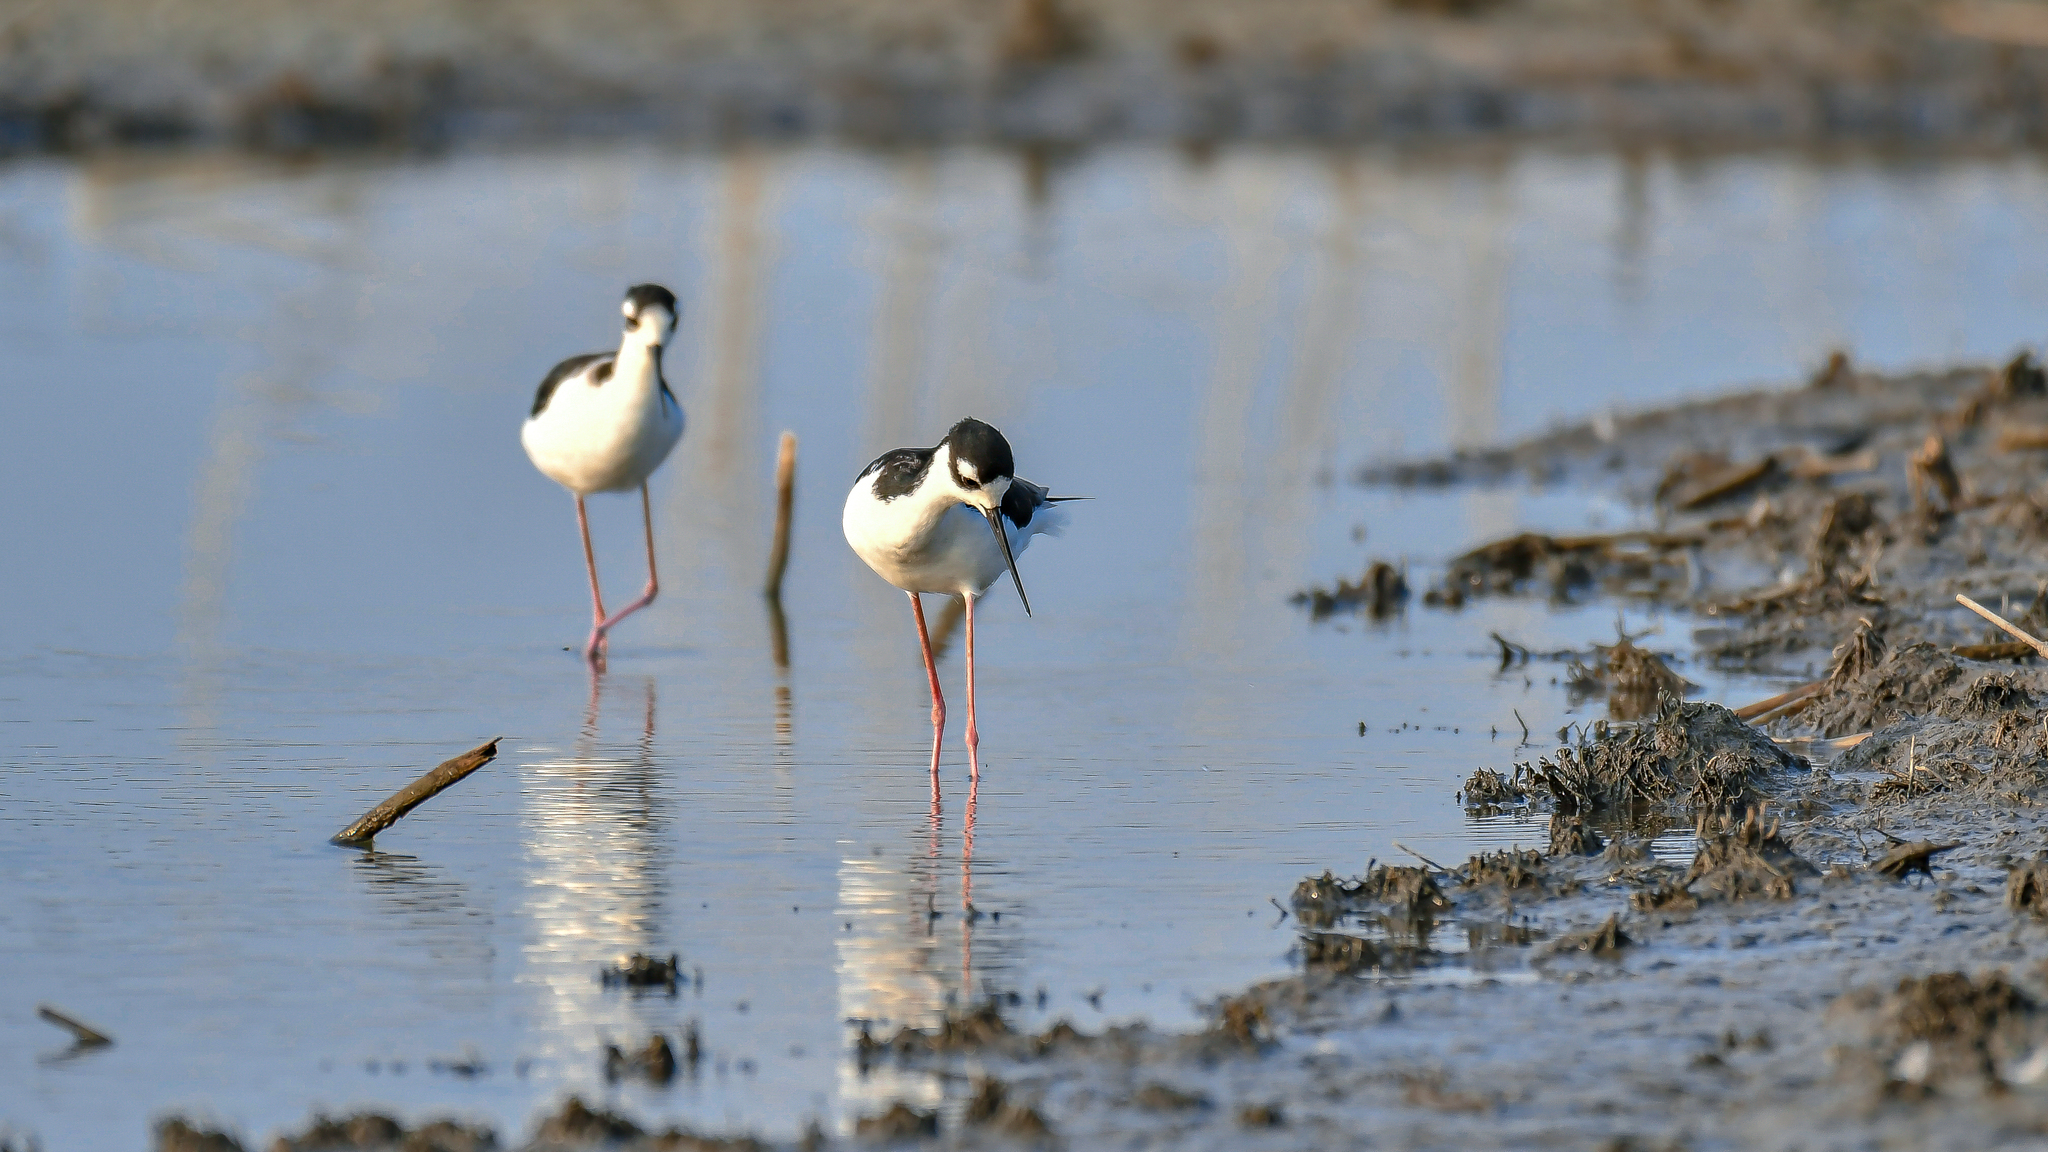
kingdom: Animalia
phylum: Chordata
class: Aves
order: Charadriiformes
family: Recurvirostridae
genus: Himantopus
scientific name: Himantopus mexicanus
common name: Black-necked stilt
